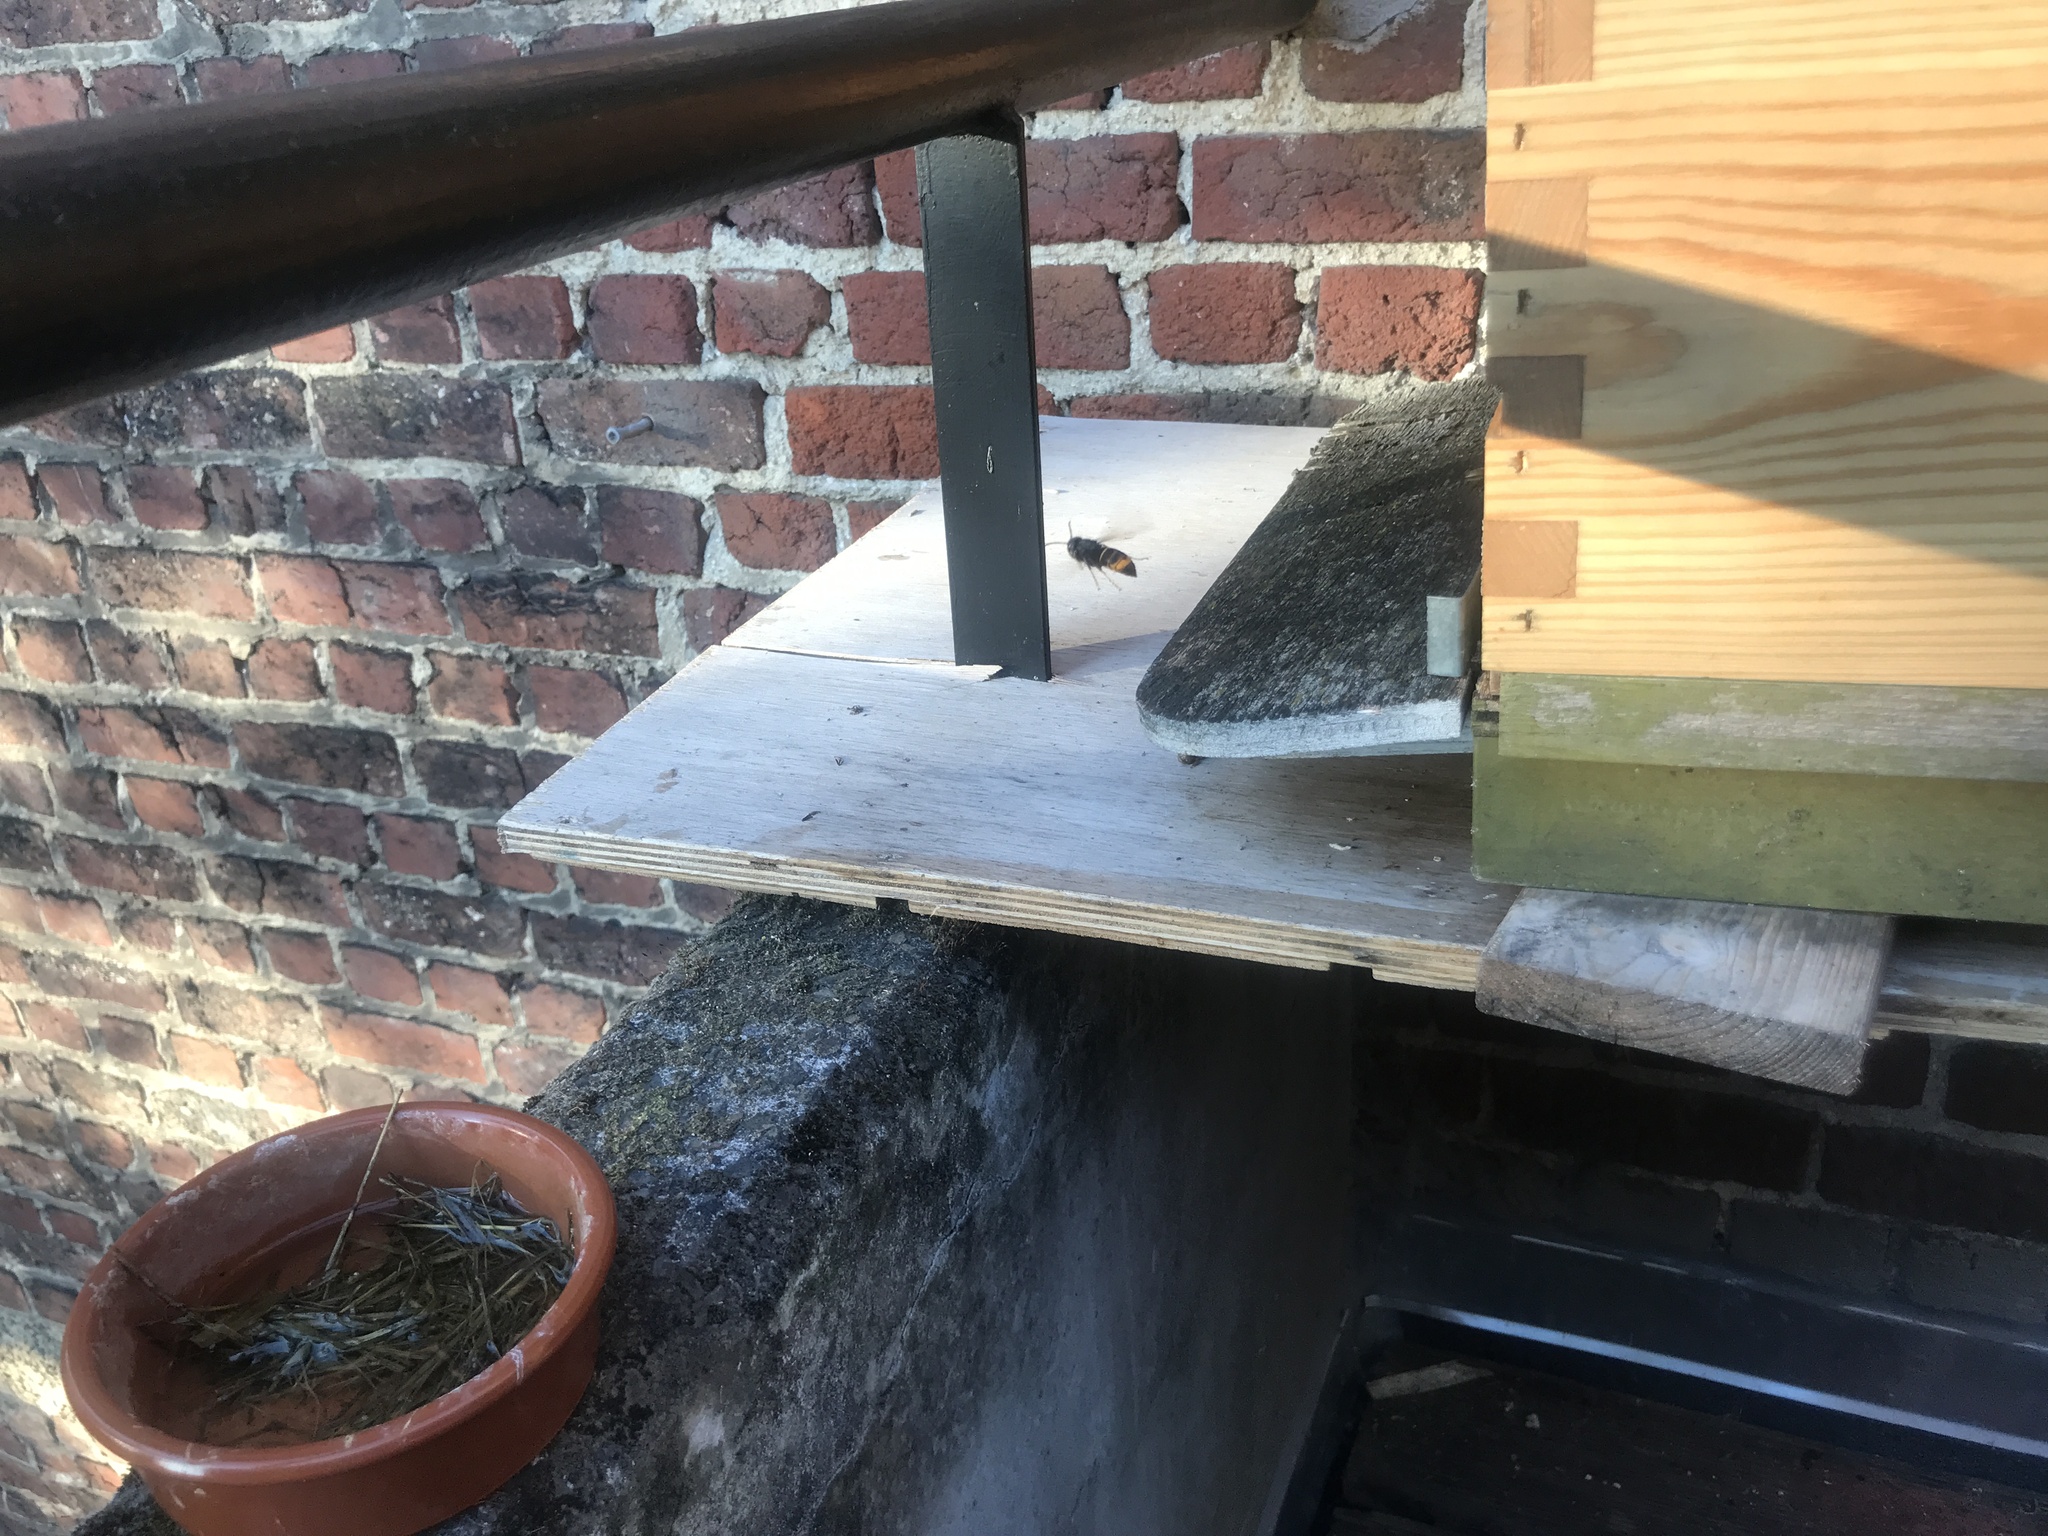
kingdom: Animalia
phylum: Arthropoda
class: Insecta
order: Hymenoptera
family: Vespidae
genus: Vespa
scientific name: Vespa velutina
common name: Asian hornet
